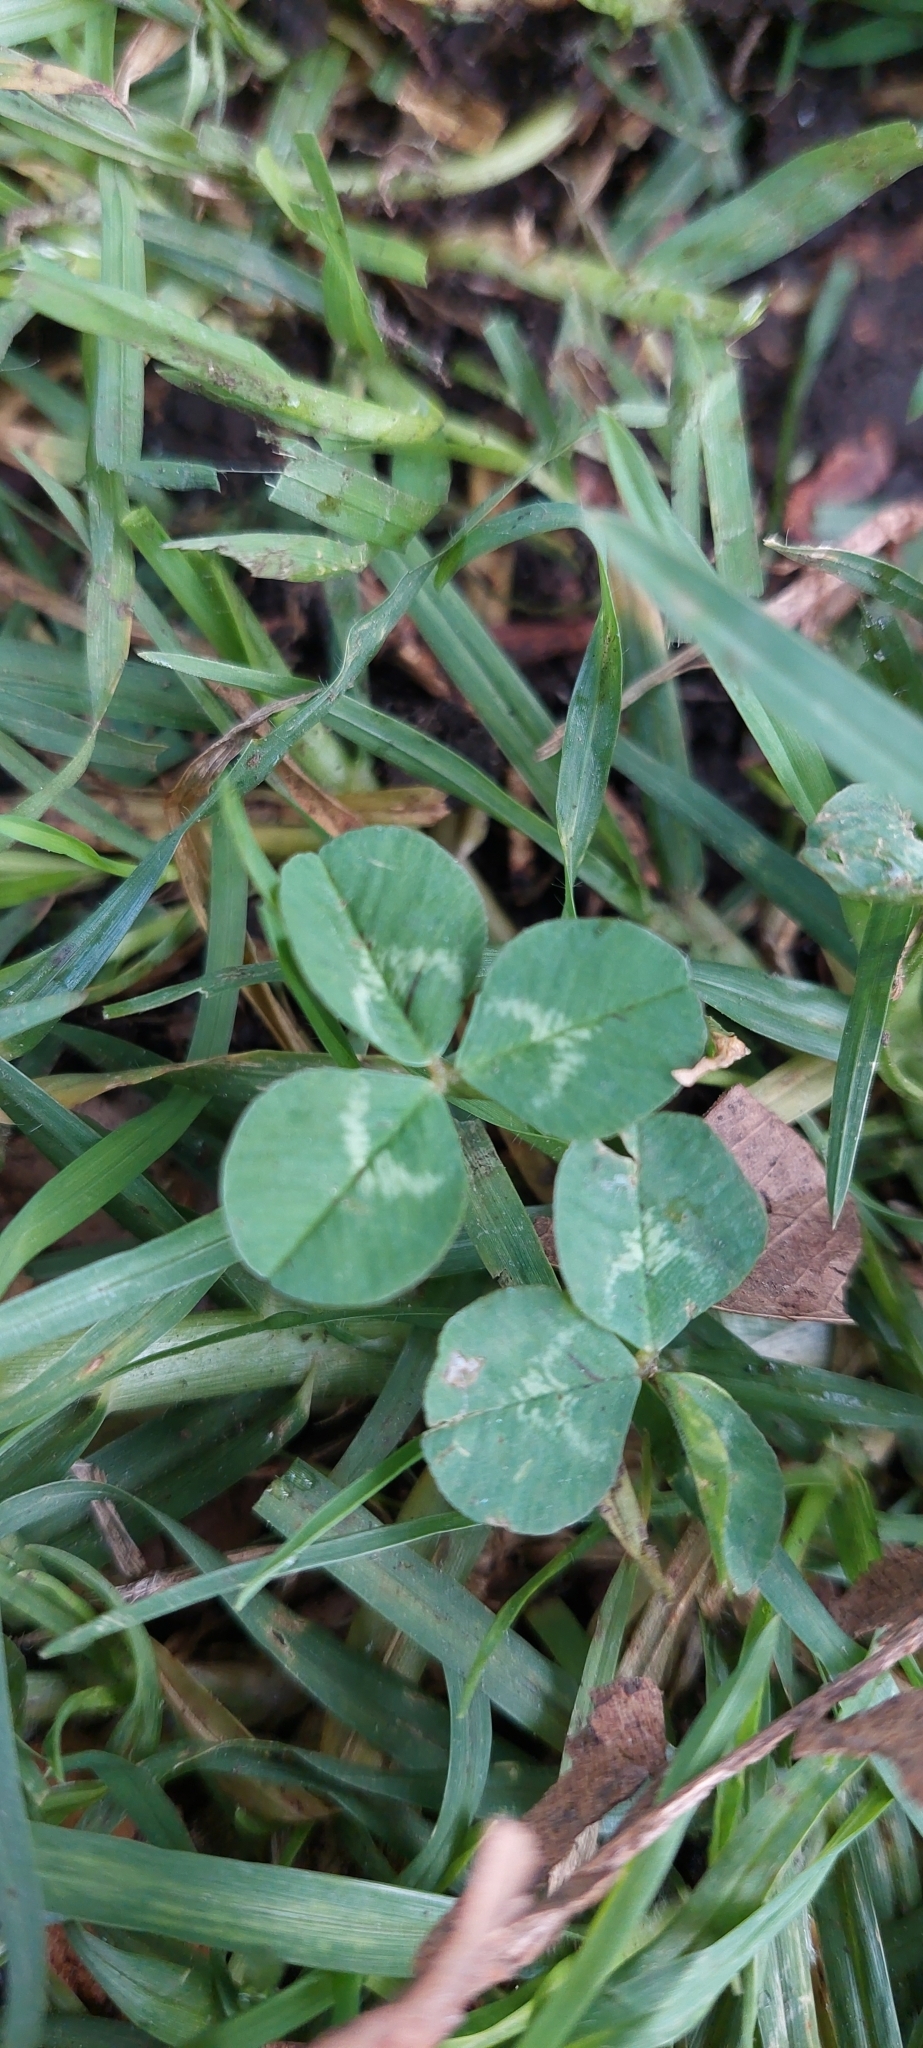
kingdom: Plantae
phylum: Tracheophyta
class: Magnoliopsida
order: Fabales
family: Fabaceae
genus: Trifolium
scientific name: Trifolium repens
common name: White clover
